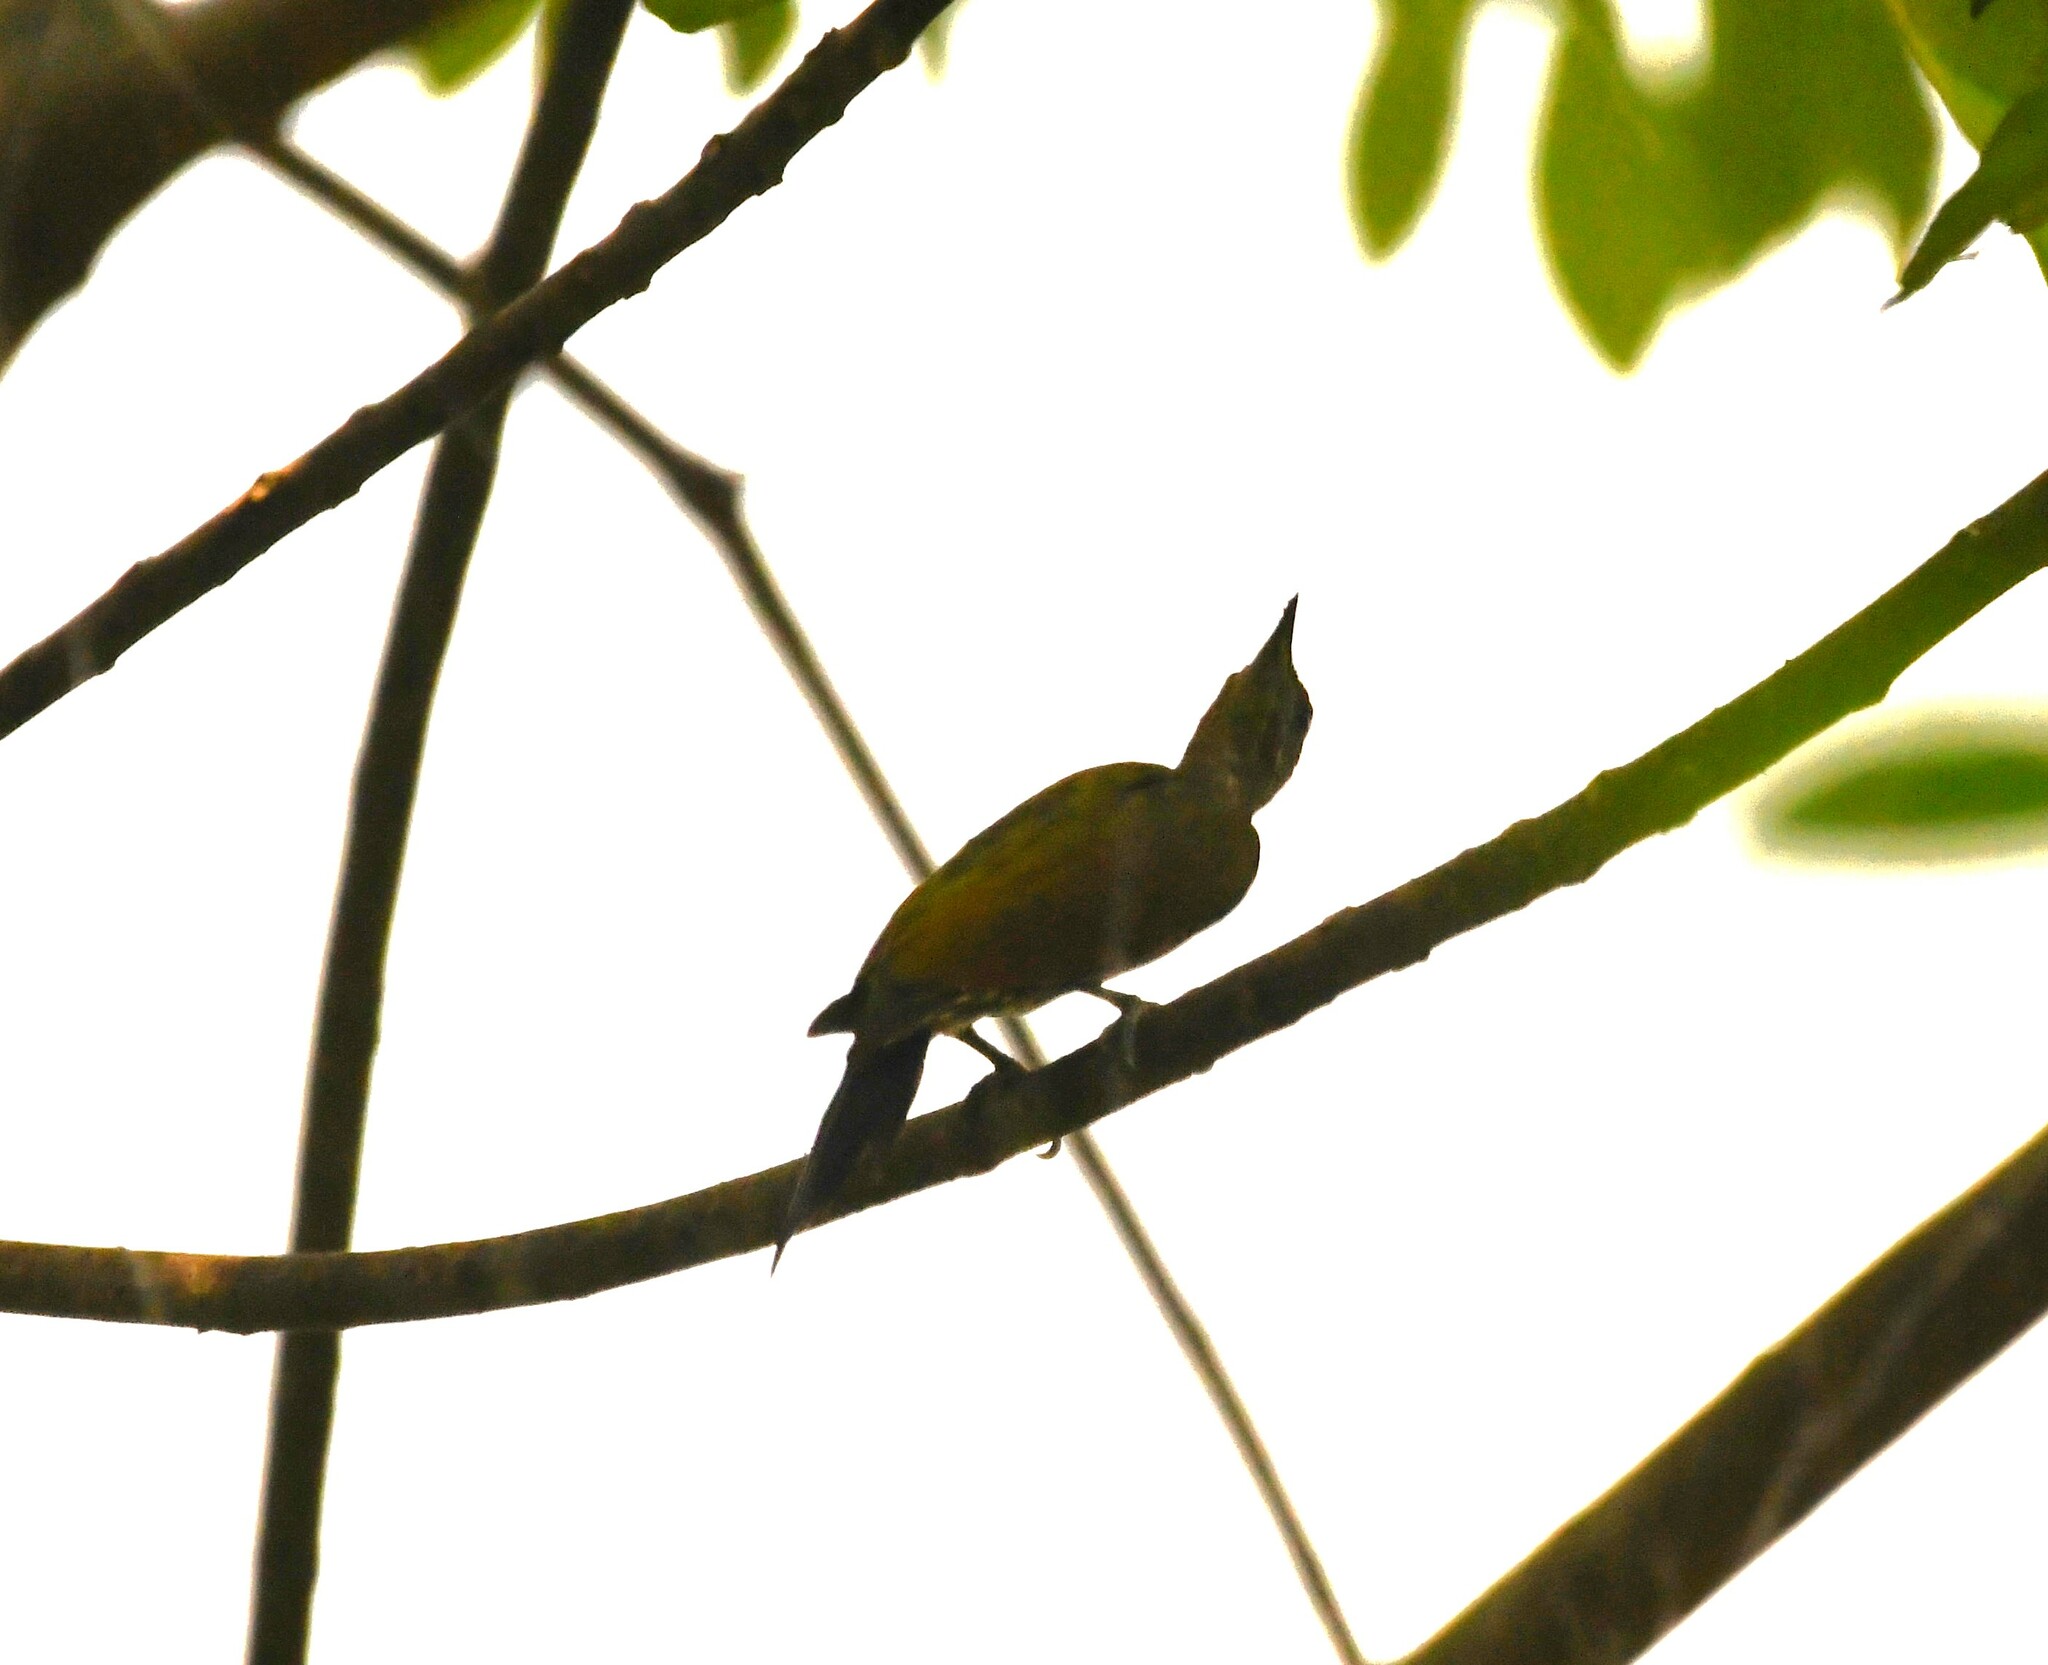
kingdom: Animalia
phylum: Chordata
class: Aves
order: Piciformes
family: Picidae
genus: Picus
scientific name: Picus chlorolophus
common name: Lesser yellownape
